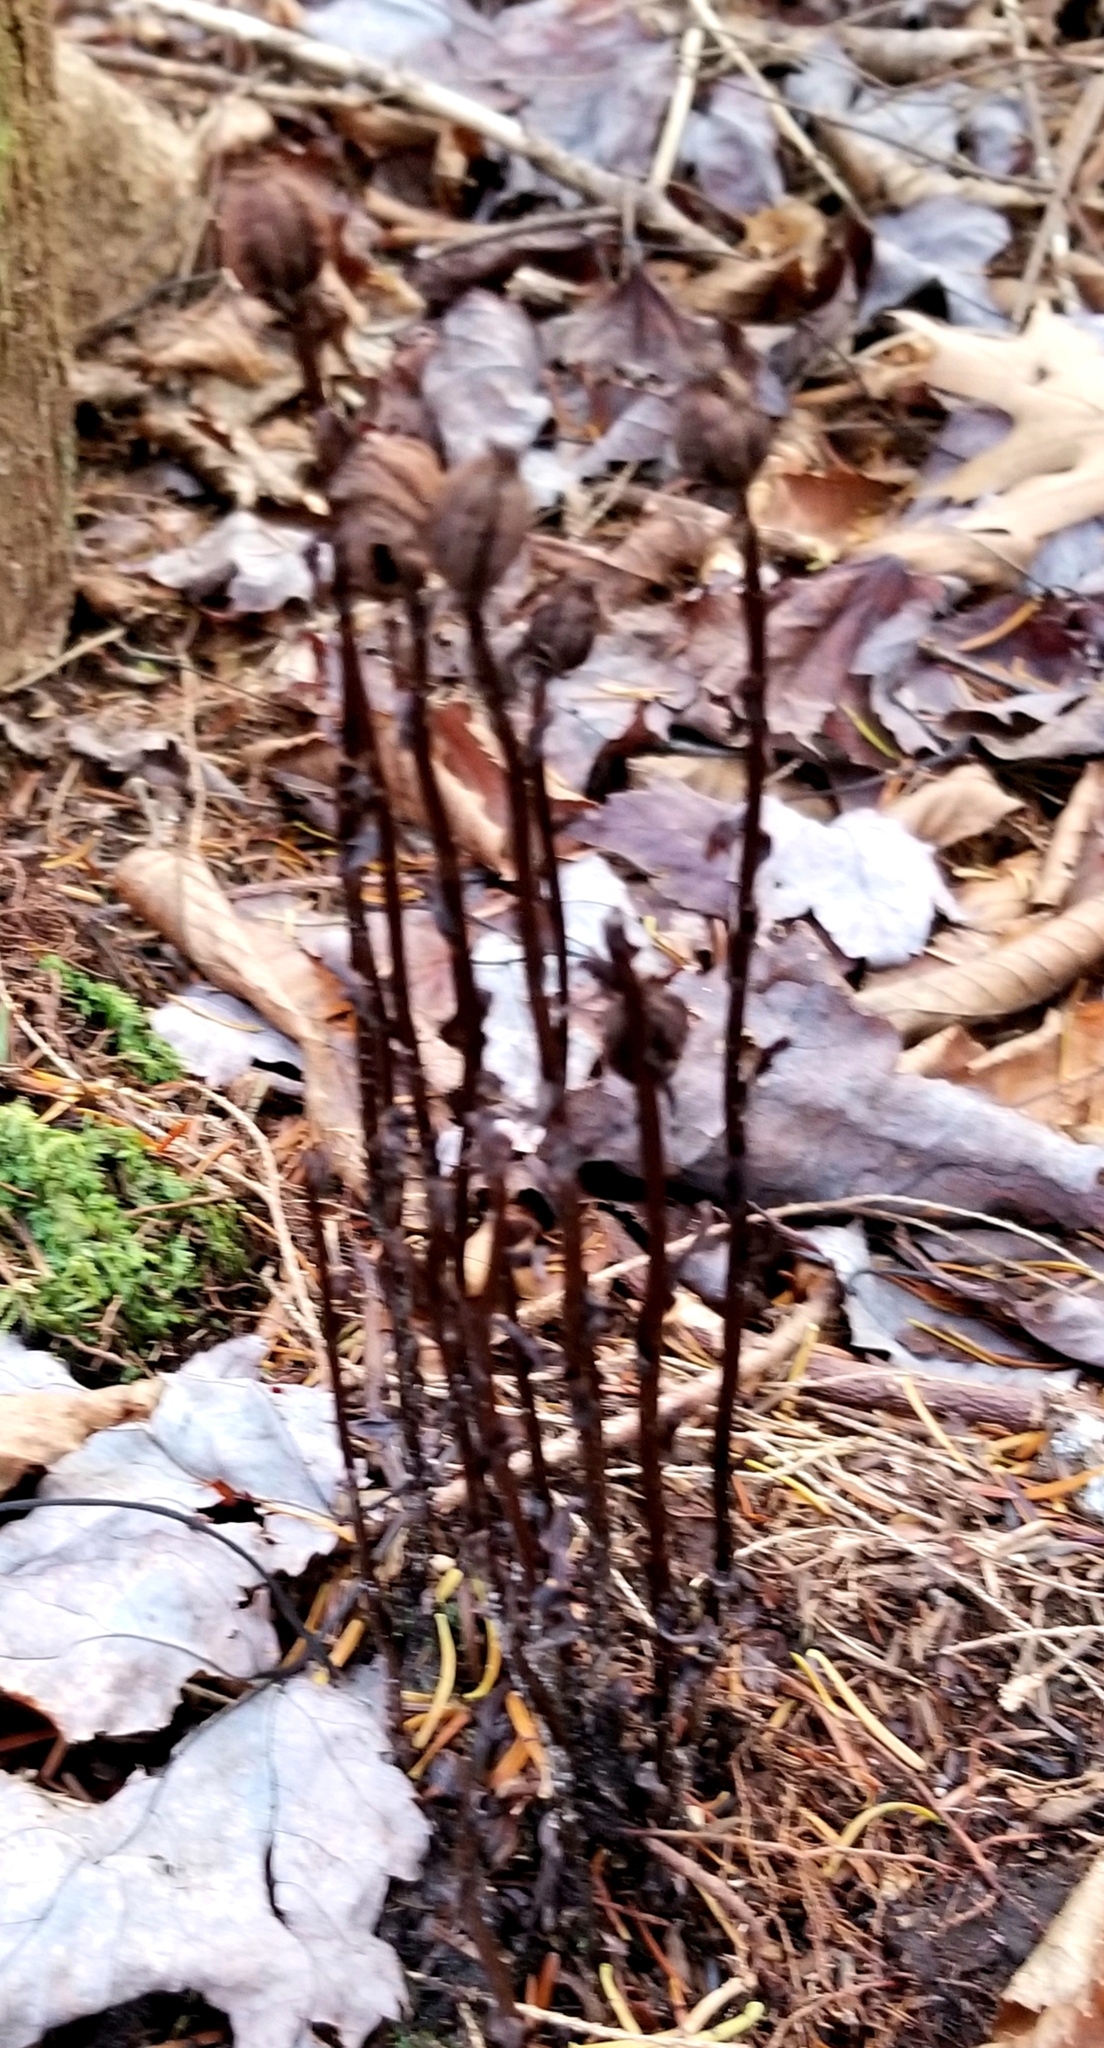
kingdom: Plantae
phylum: Tracheophyta
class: Magnoliopsida
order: Ericales
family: Ericaceae
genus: Monotropa
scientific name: Monotropa uniflora
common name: Convulsion root
